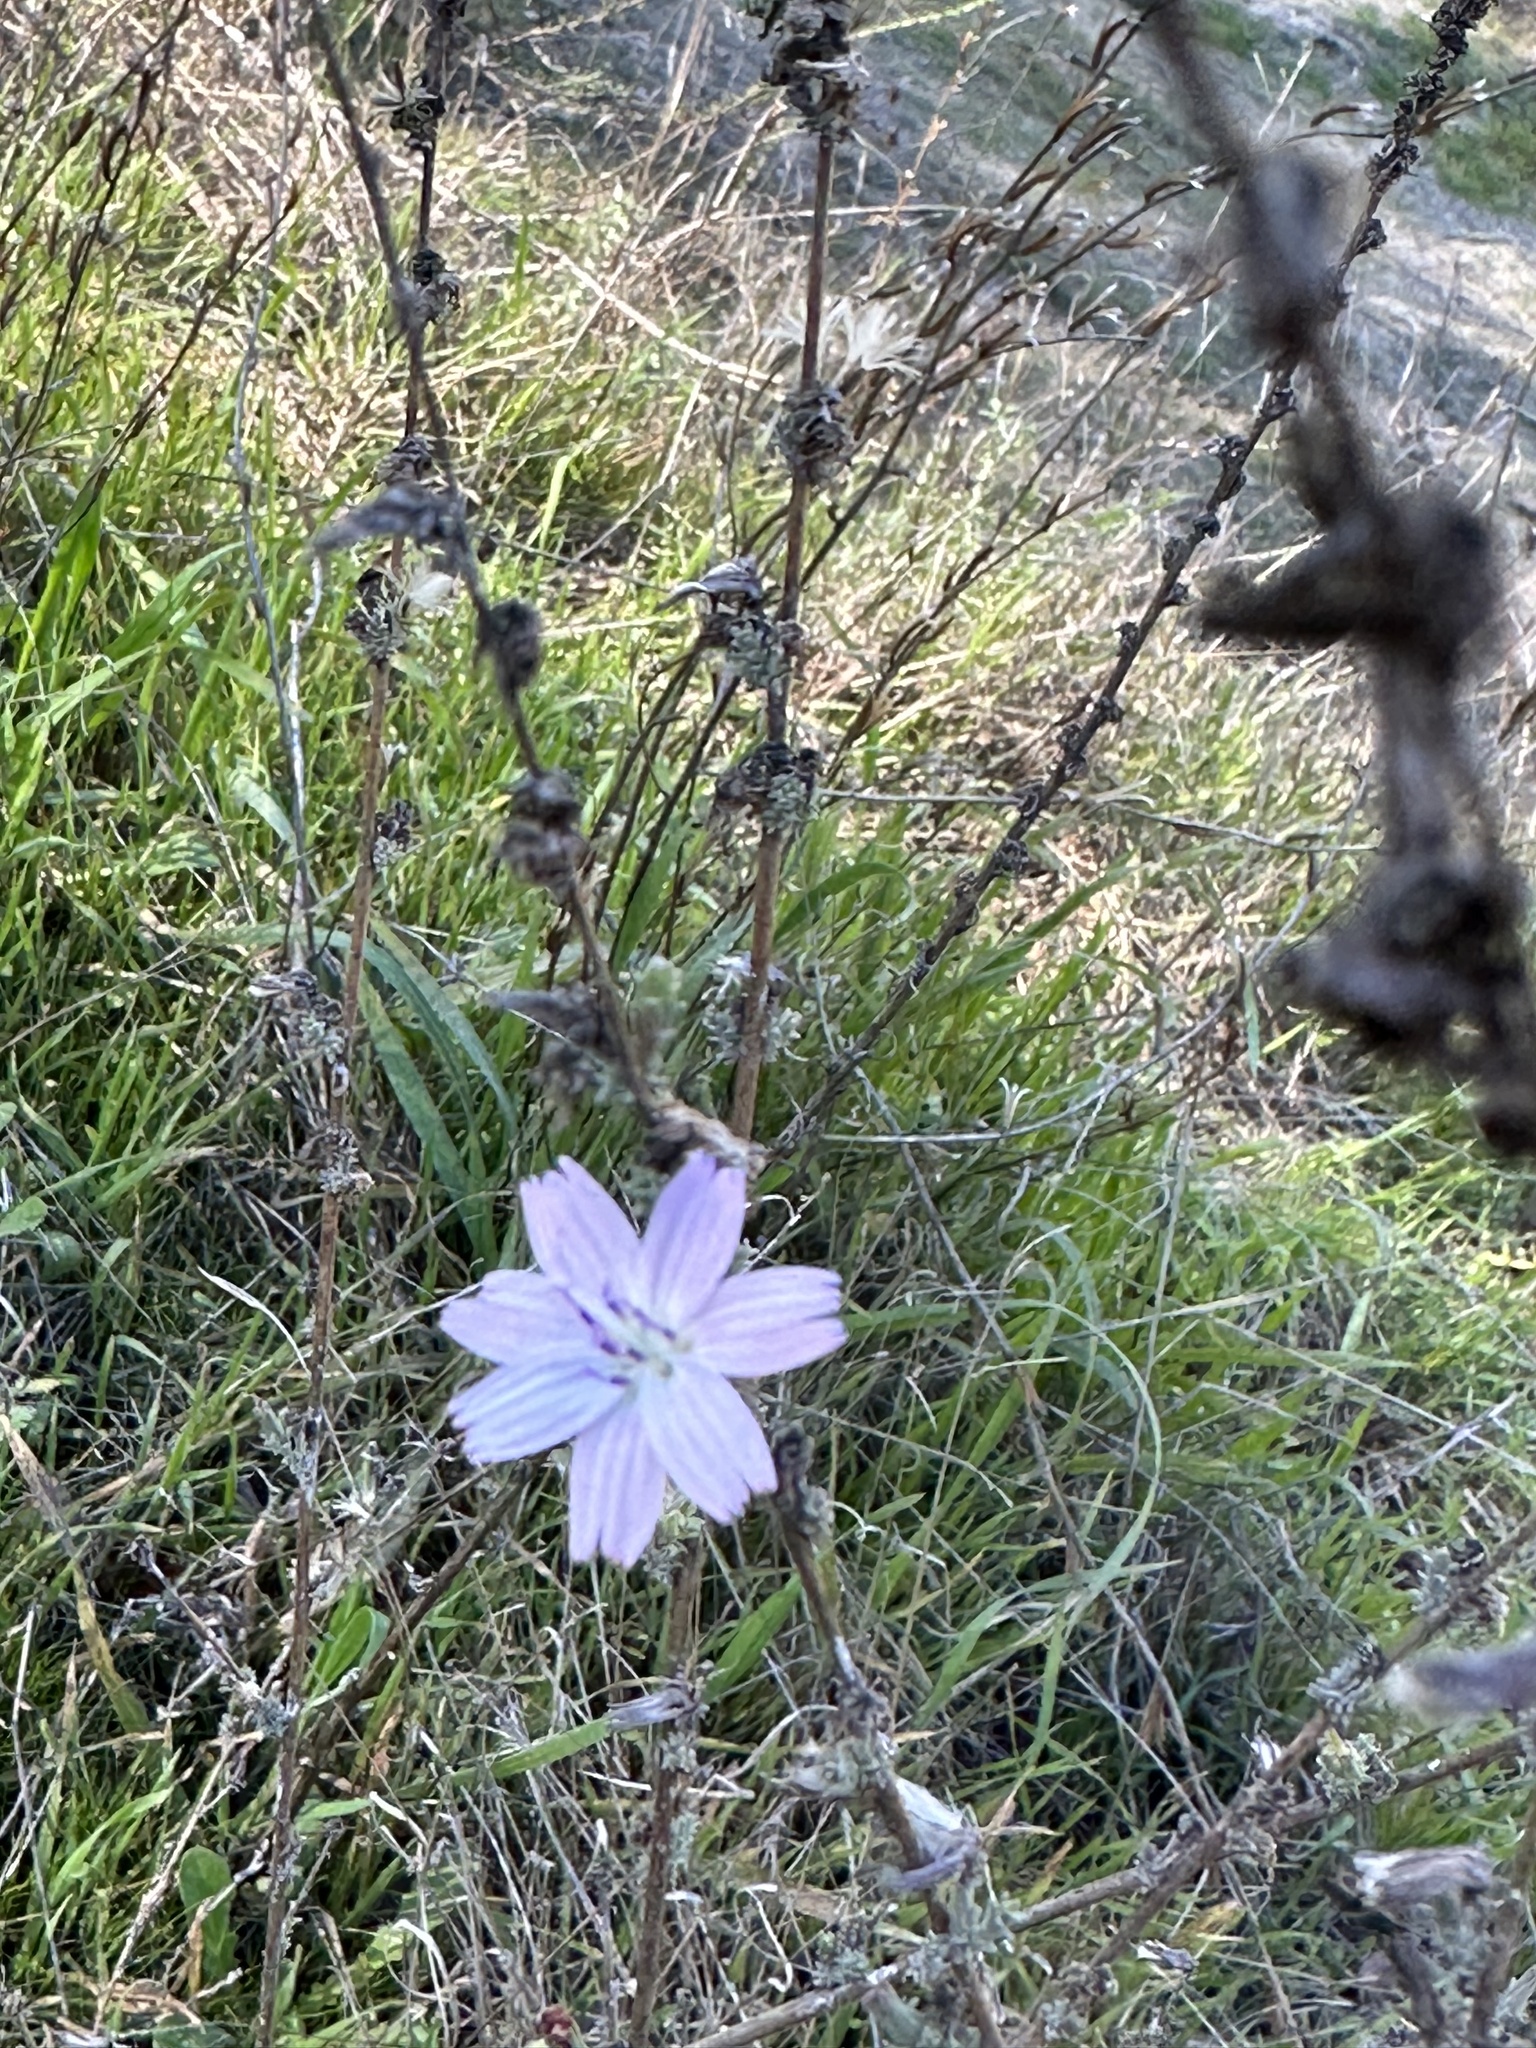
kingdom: Plantae
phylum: Tracheophyta
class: Magnoliopsida
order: Asterales
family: Asteraceae
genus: Stephanomeria
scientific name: Stephanomeria diegensis
